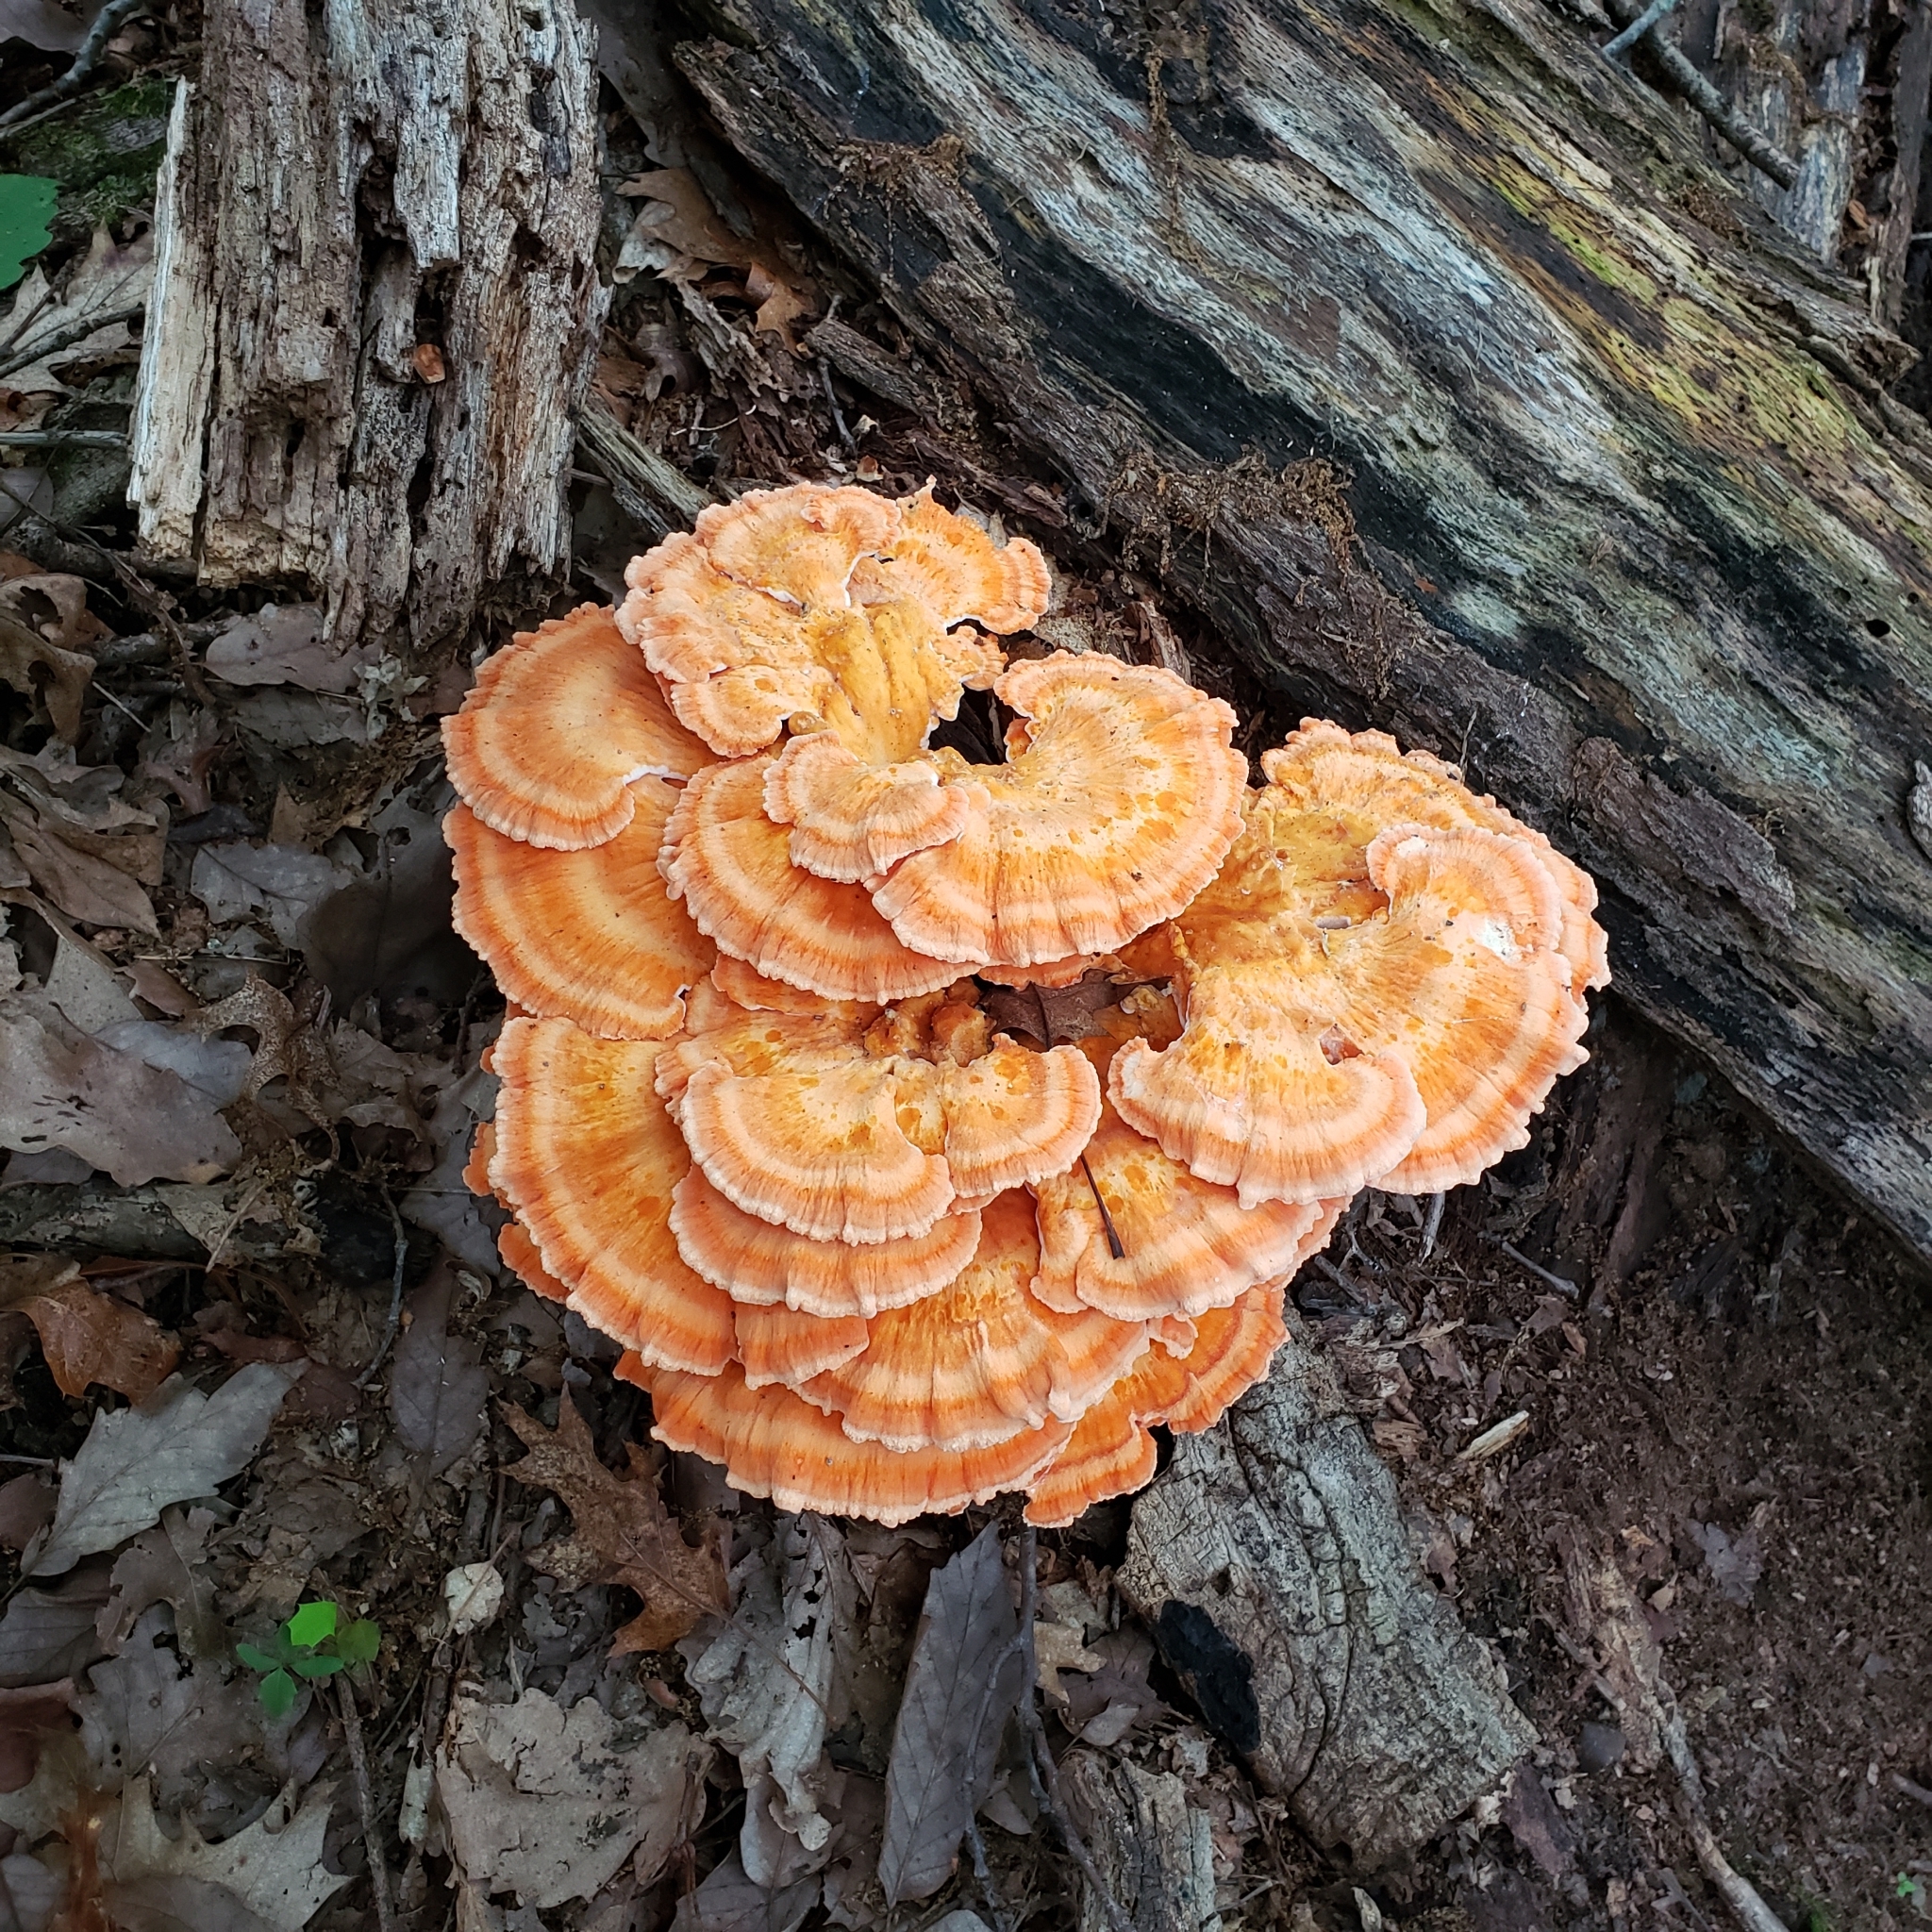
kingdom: Fungi
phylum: Basidiomycota
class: Agaricomycetes
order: Polyporales
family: Laetiporaceae
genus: Laetiporus
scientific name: Laetiporus sulphureus
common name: Chicken of the woods
